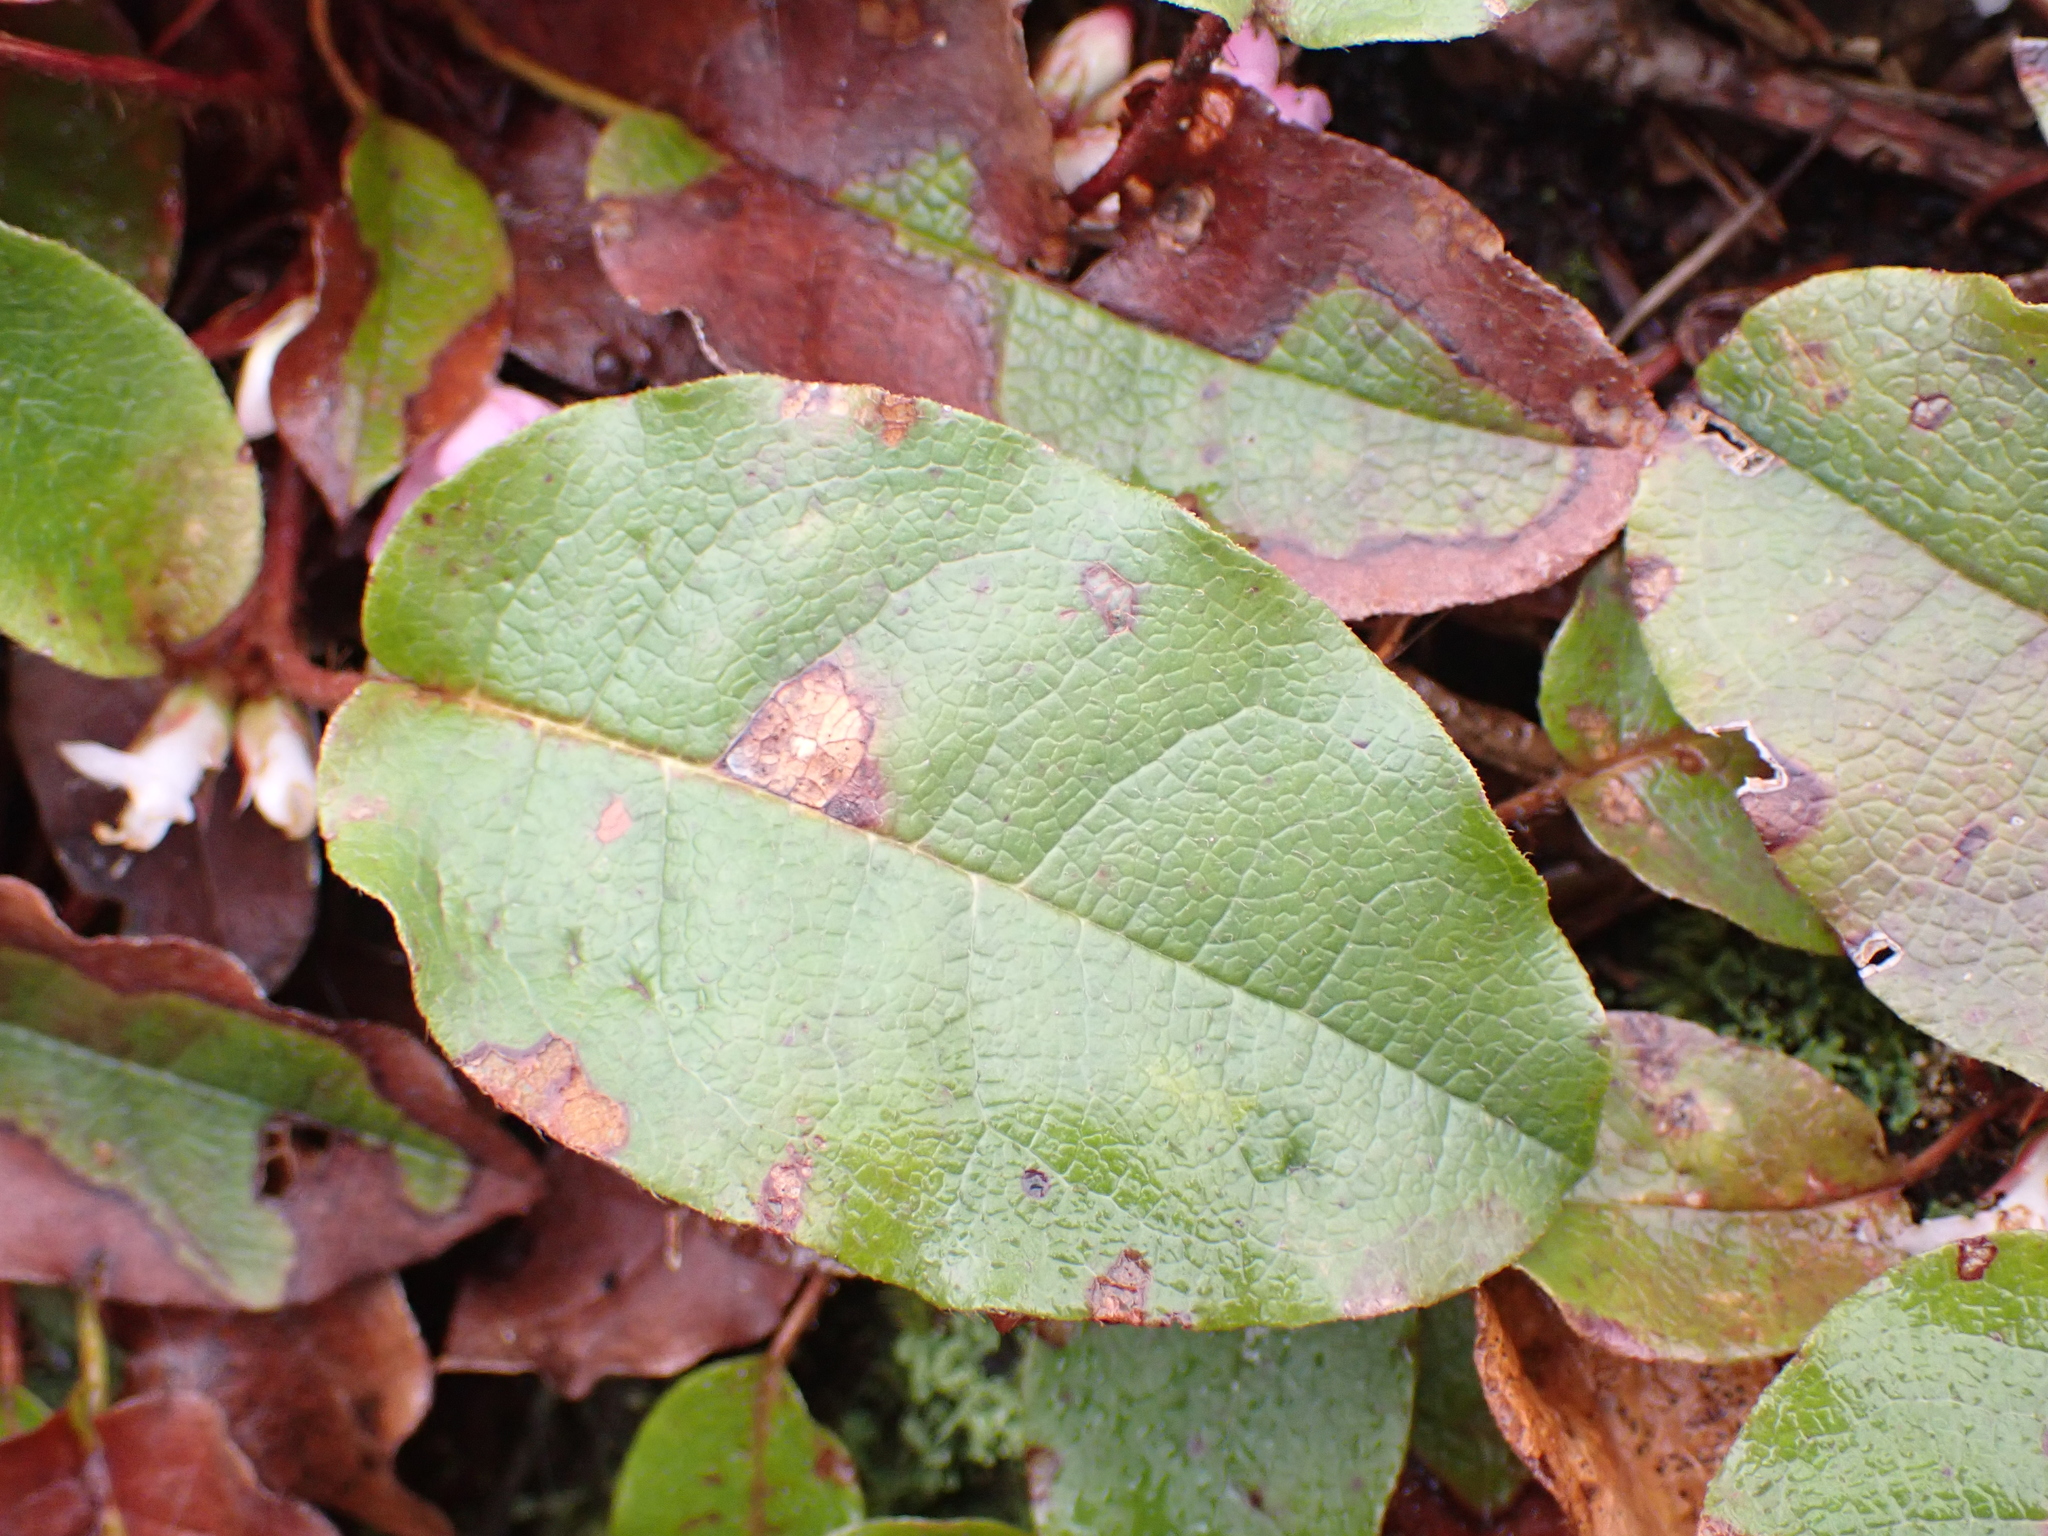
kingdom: Plantae
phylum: Tracheophyta
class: Magnoliopsida
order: Ericales
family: Ericaceae
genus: Epigaea
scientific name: Epigaea repens
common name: Gravelroot
